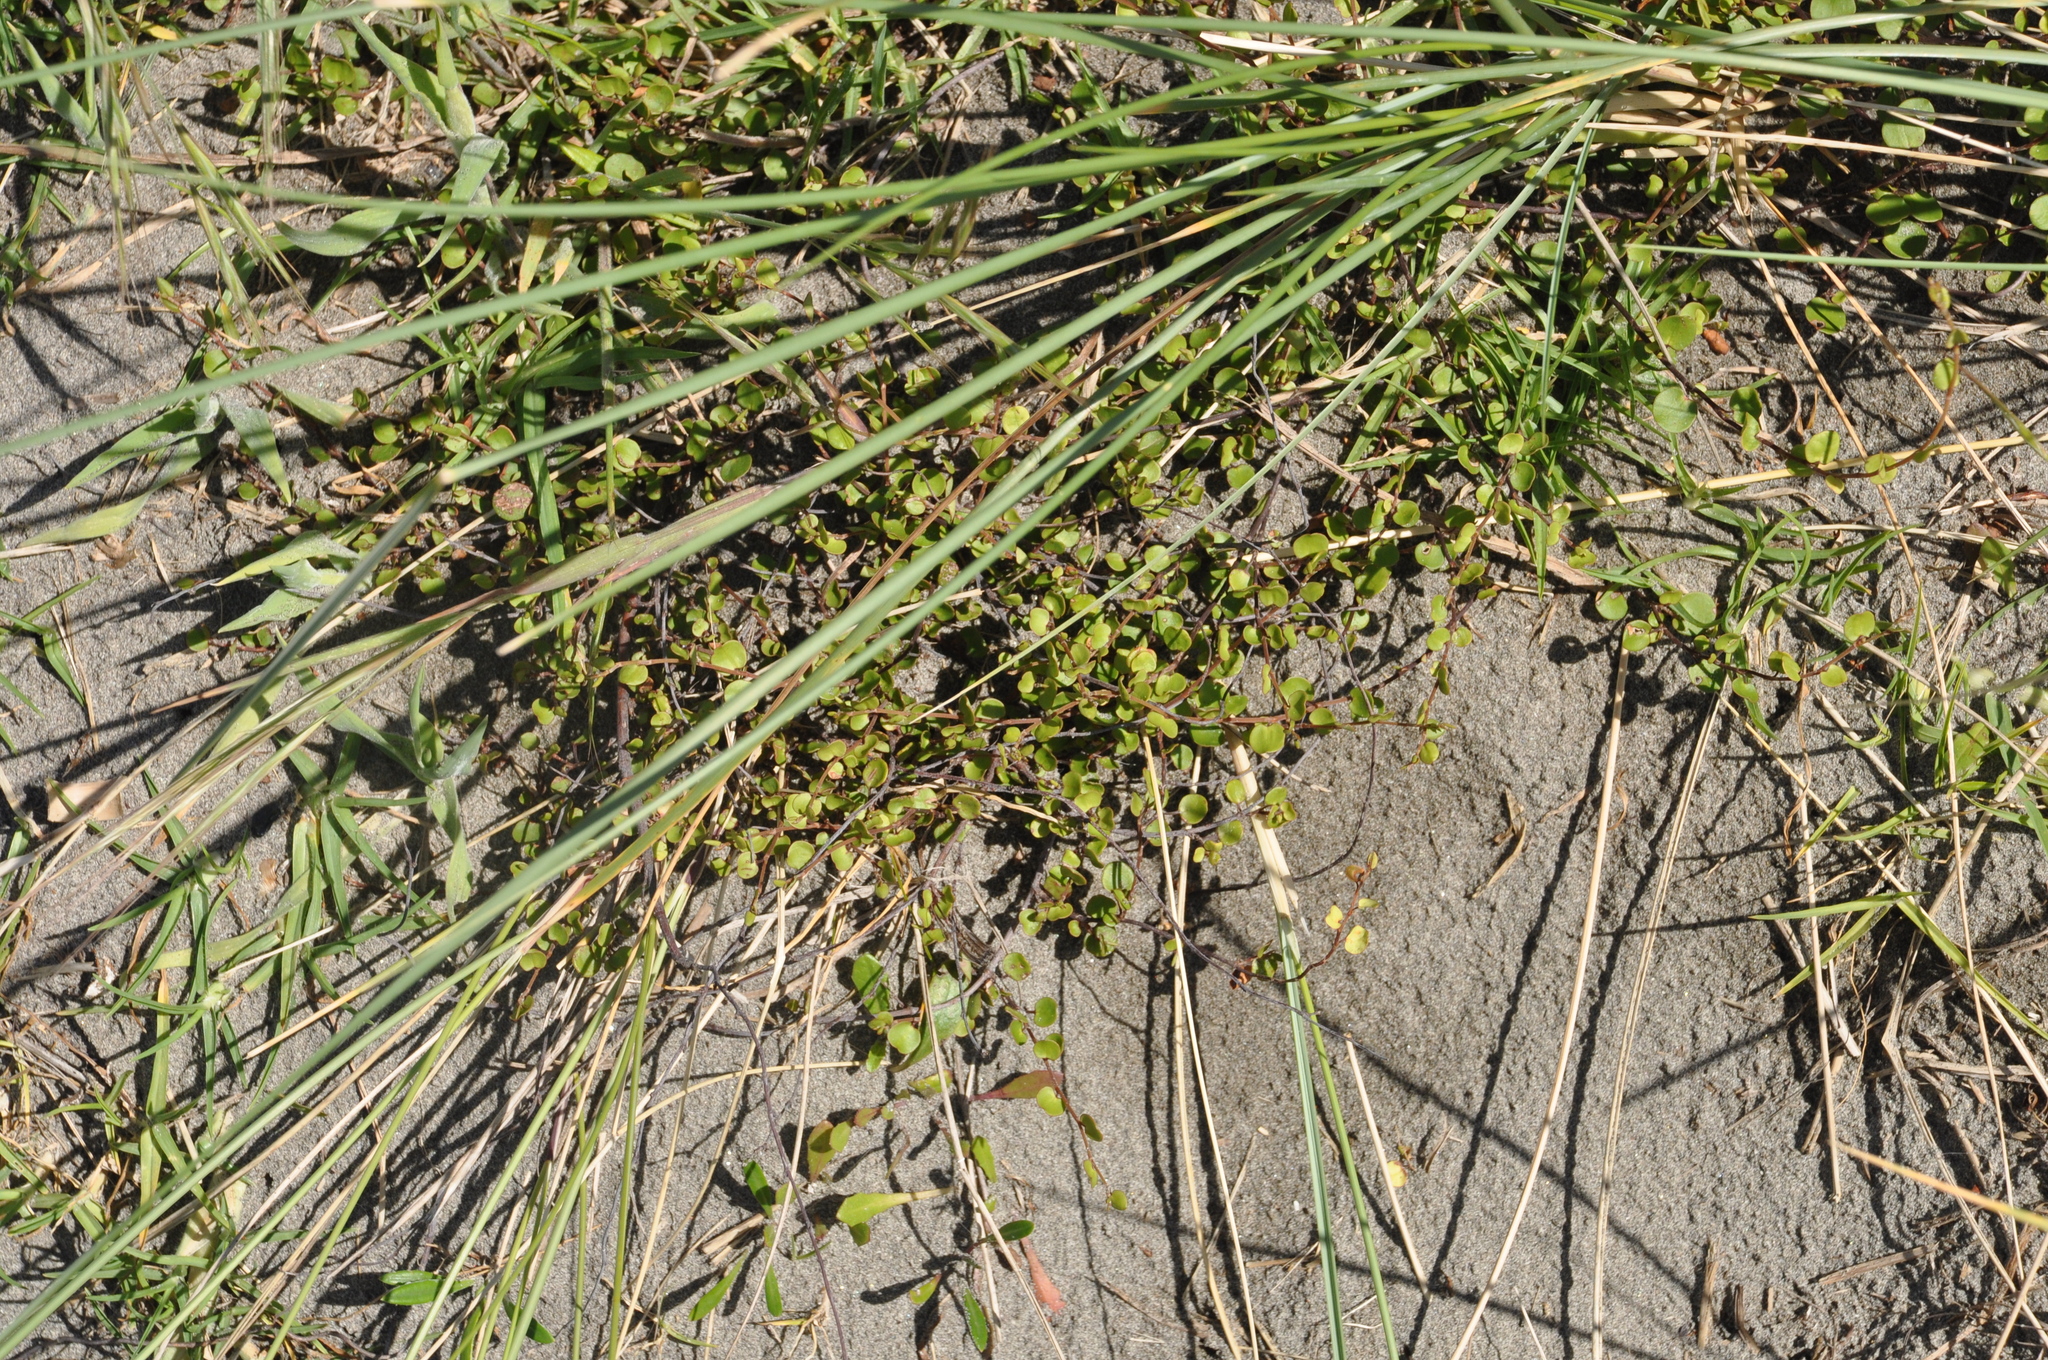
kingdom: Plantae
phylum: Tracheophyta
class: Magnoliopsida
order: Caryophyllales
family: Polygonaceae
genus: Muehlenbeckia
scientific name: Muehlenbeckia complexa
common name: Wireplant
